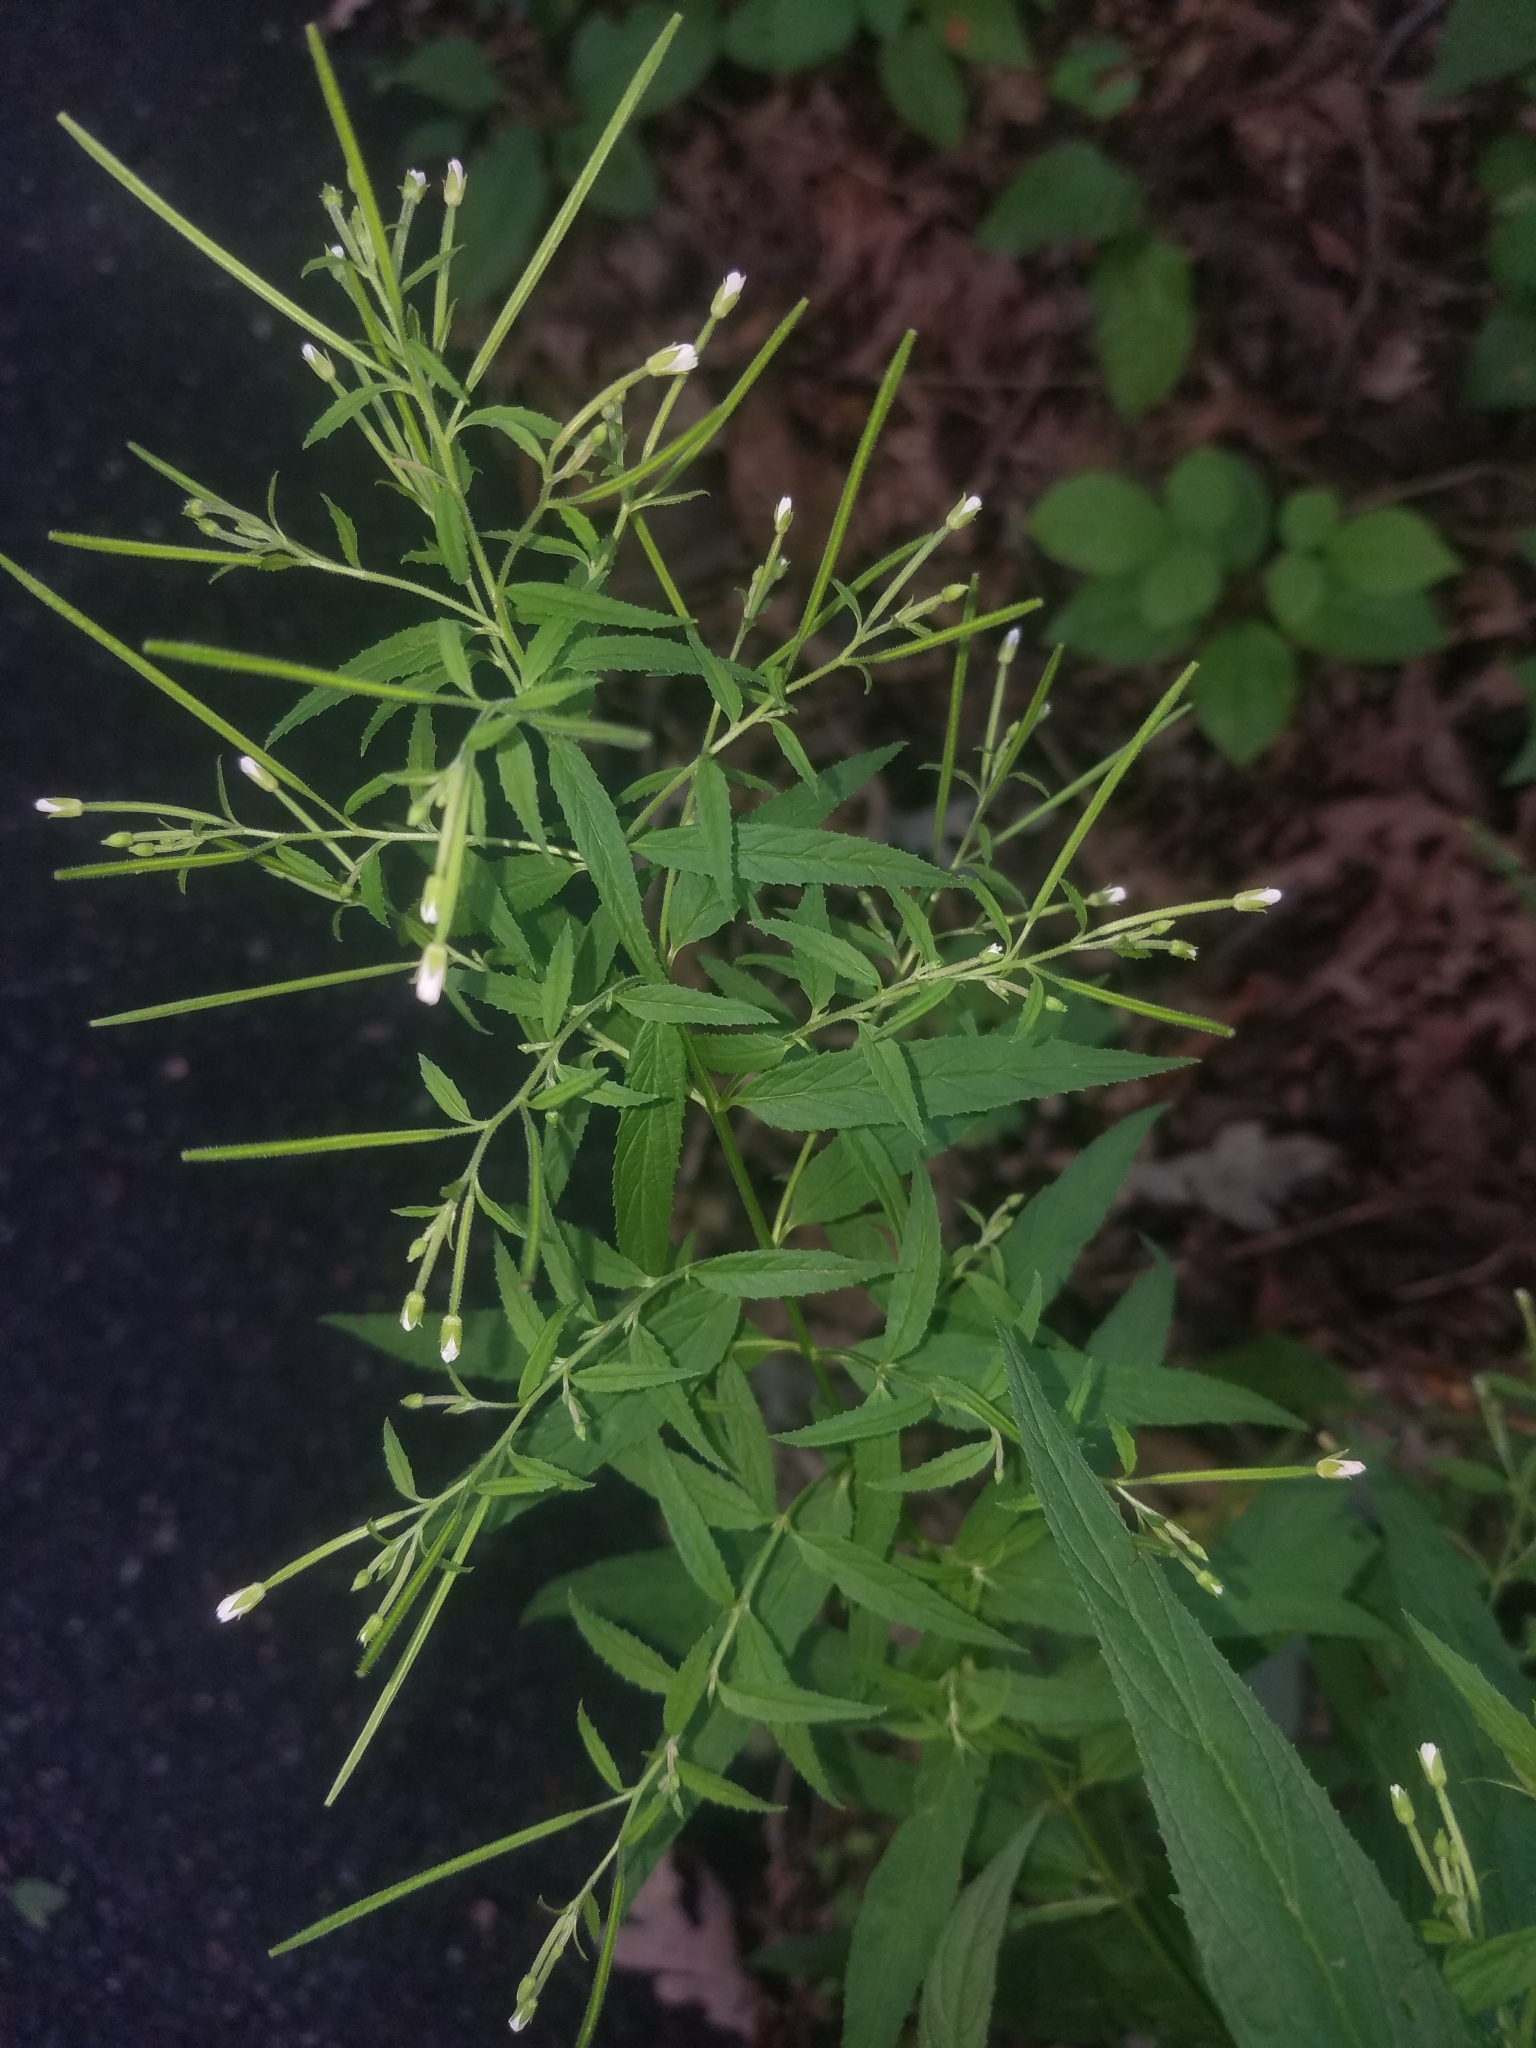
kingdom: Plantae
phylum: Tracheophyta
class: Magnoliopsida
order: Myrtales
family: Onagraceae
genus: Epilobium
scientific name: Epilobium coloratum
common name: Bronze willowherb
